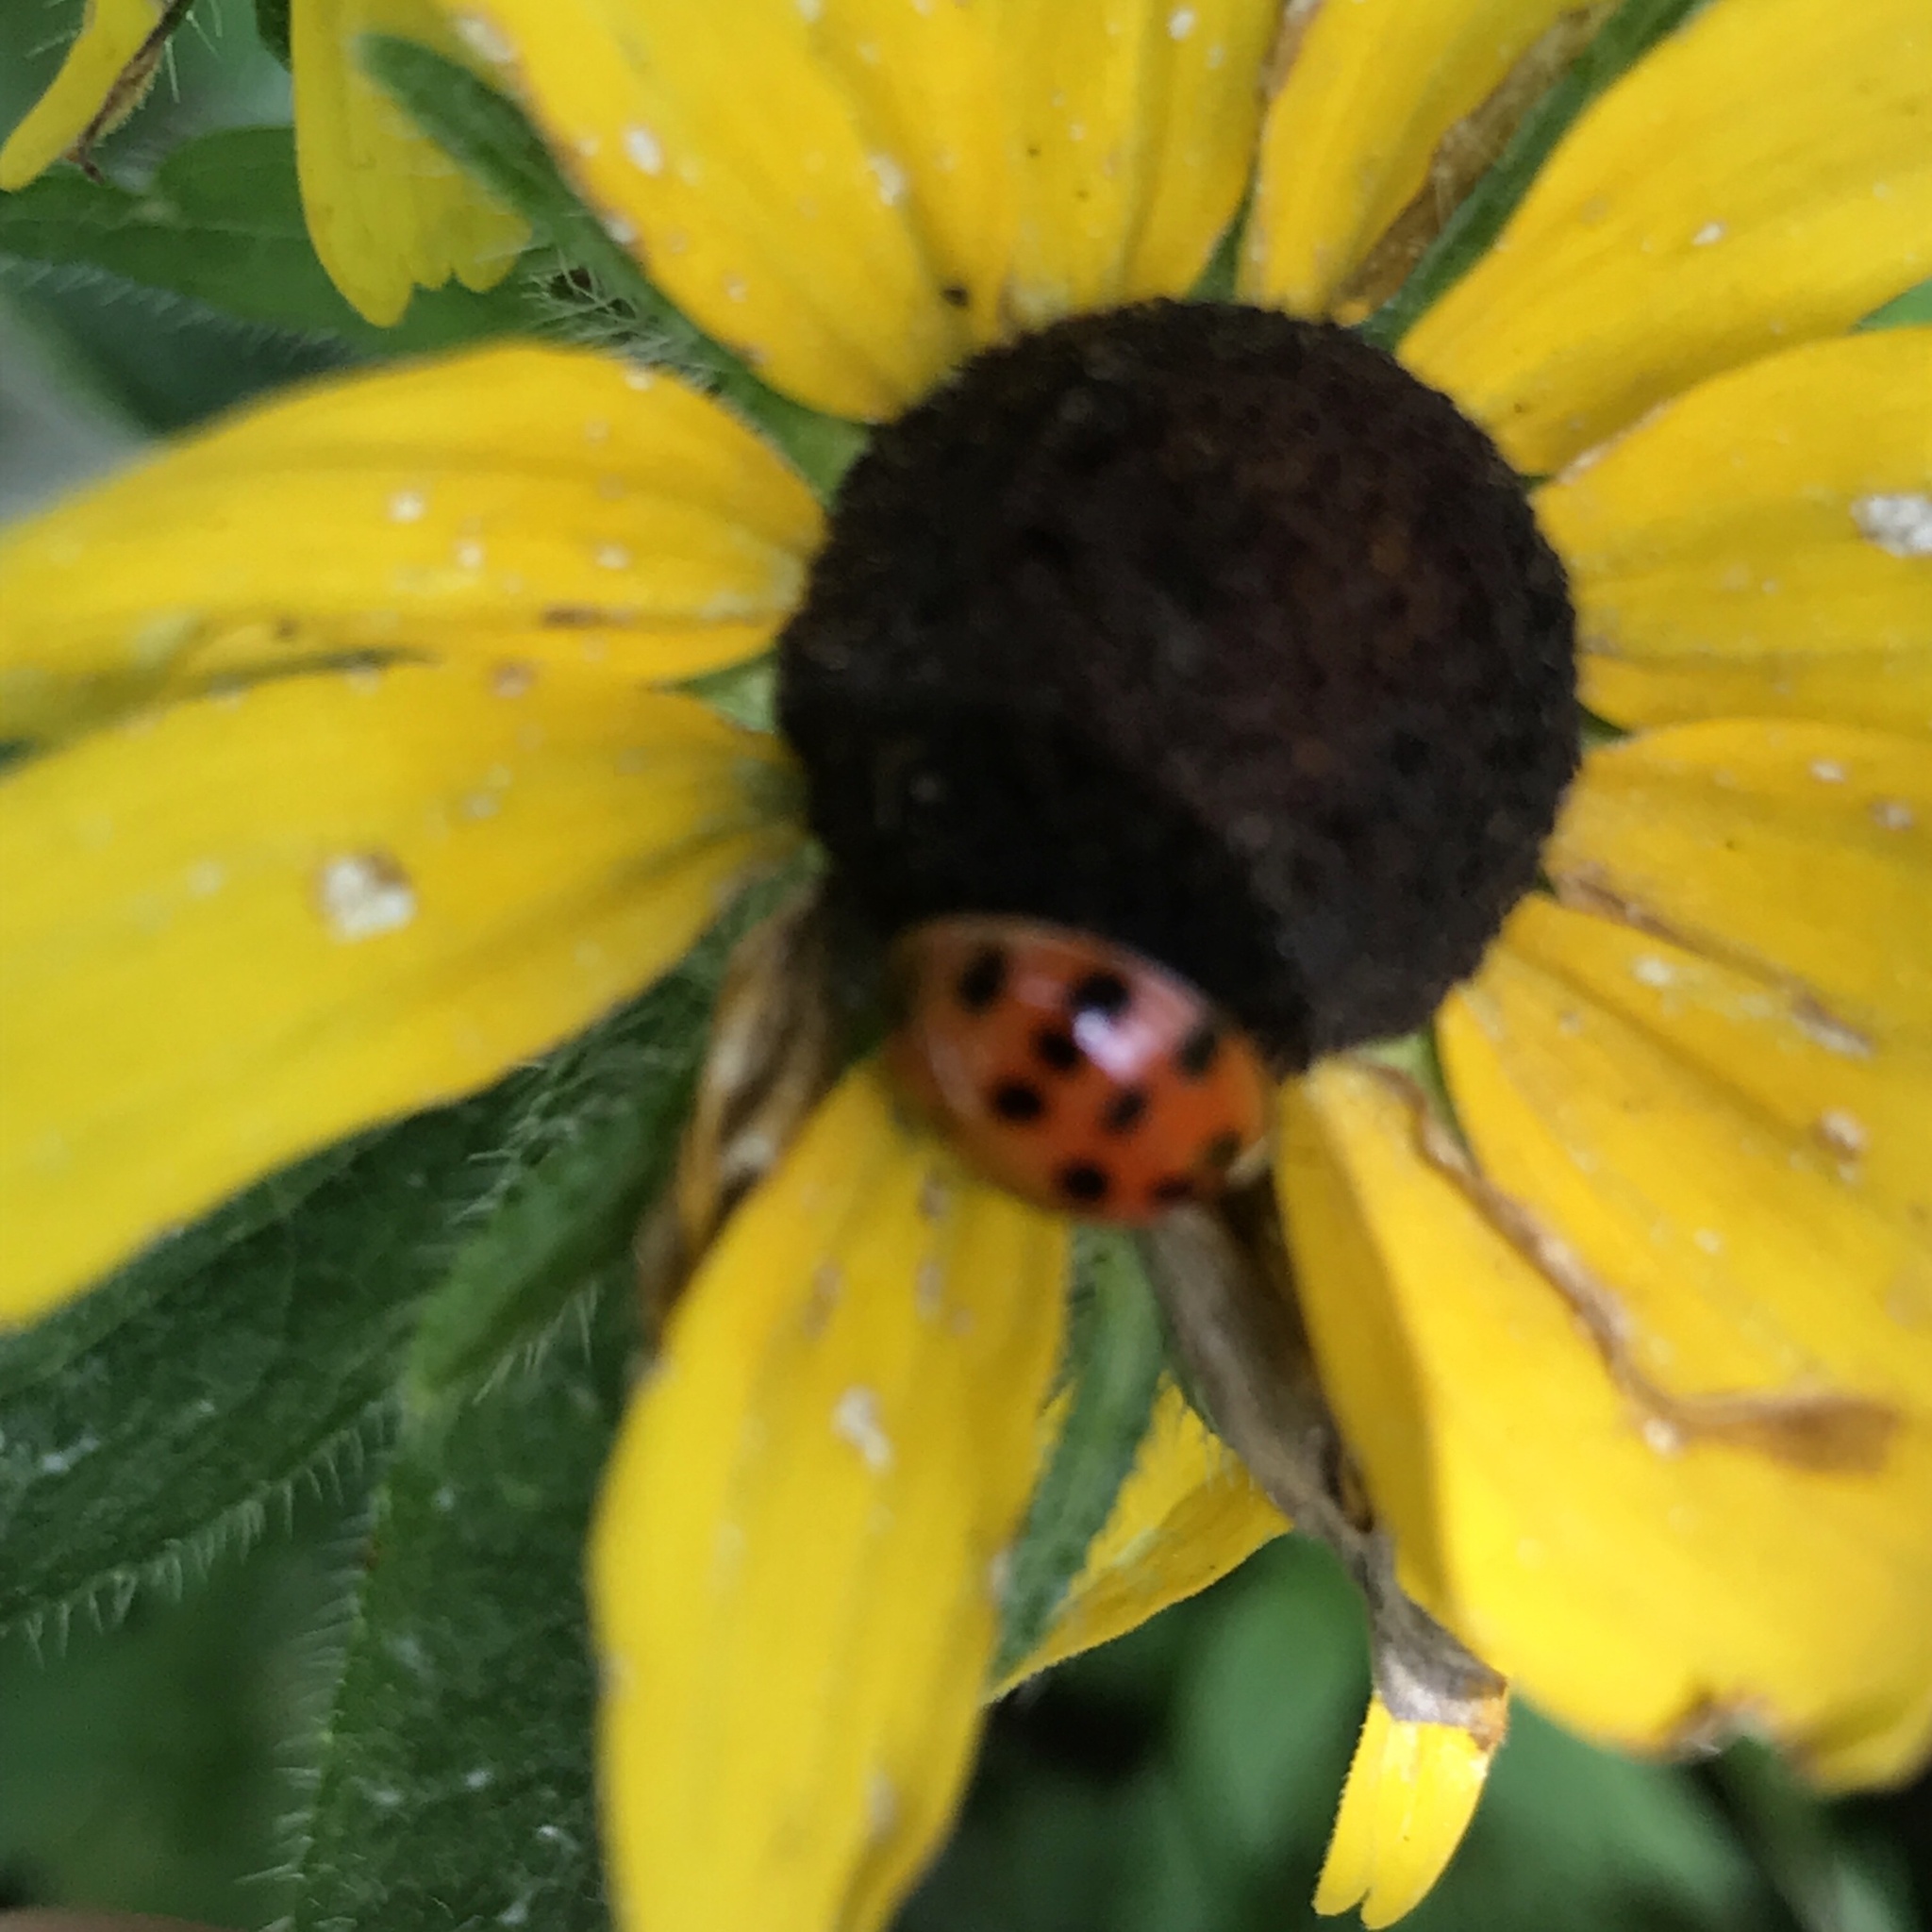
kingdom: Animalia
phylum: Arthropoda
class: Insecta
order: Coleoptera
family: Coccinellidae
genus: Harmonia
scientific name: Harmonia axyridis
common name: Harlequin ladybird
